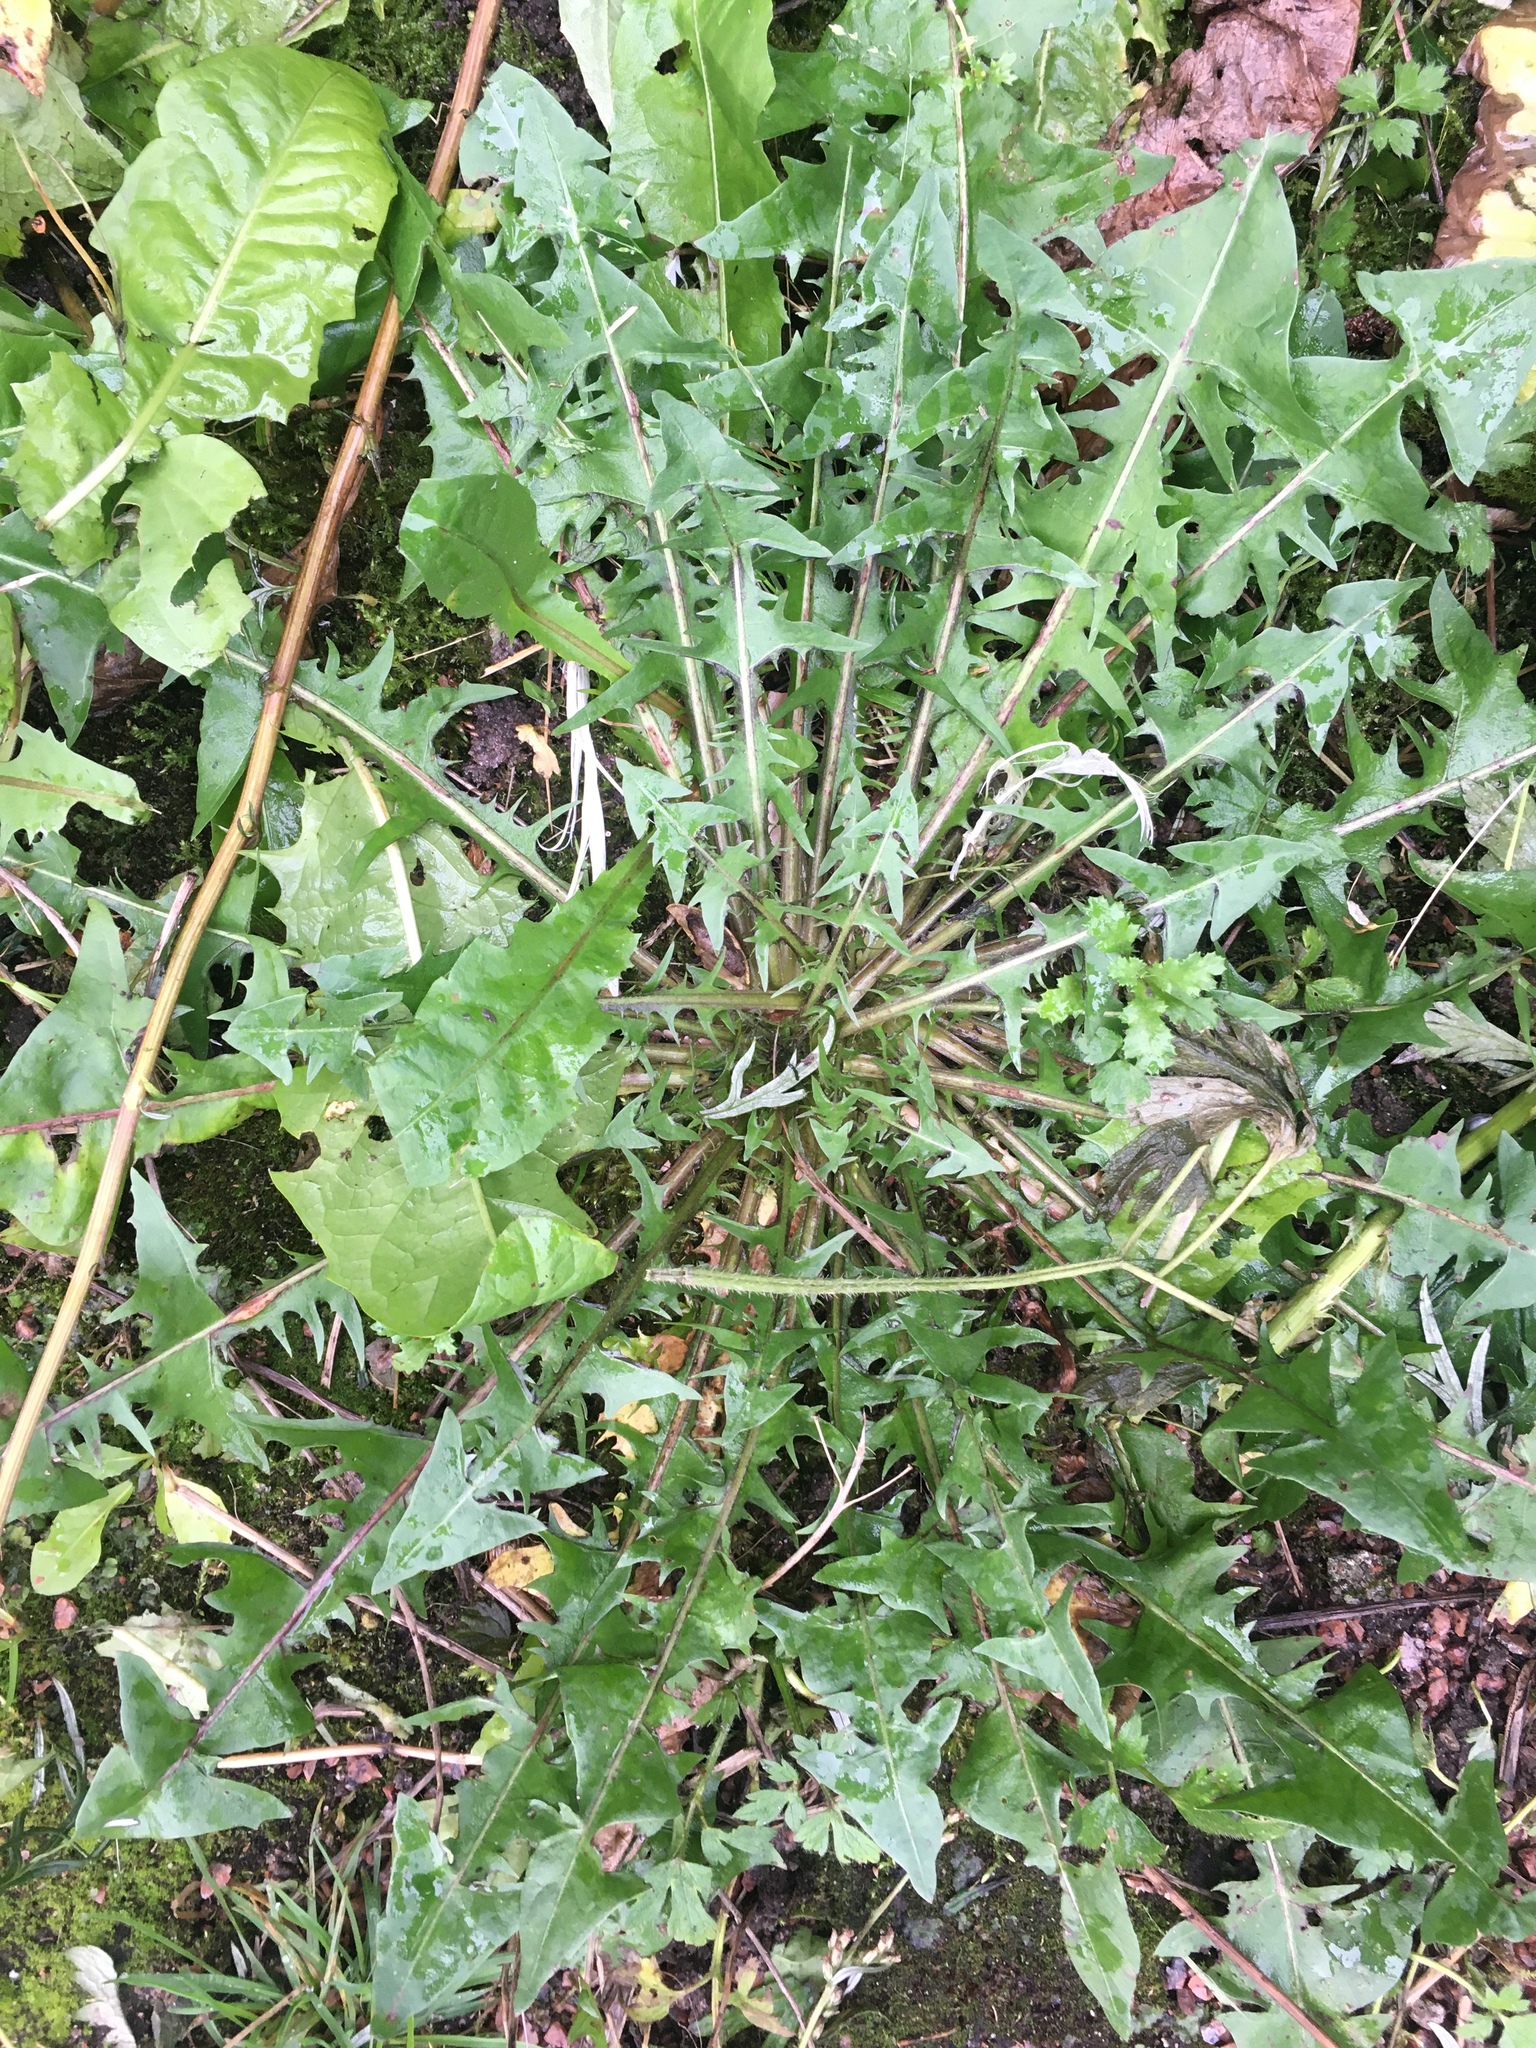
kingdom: Plantae
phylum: Tracheophyta
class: Magnoliopsida
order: Asterales
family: Asteraceae
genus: Taraxacum
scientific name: Taraxacum officinale
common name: Common dandelion
